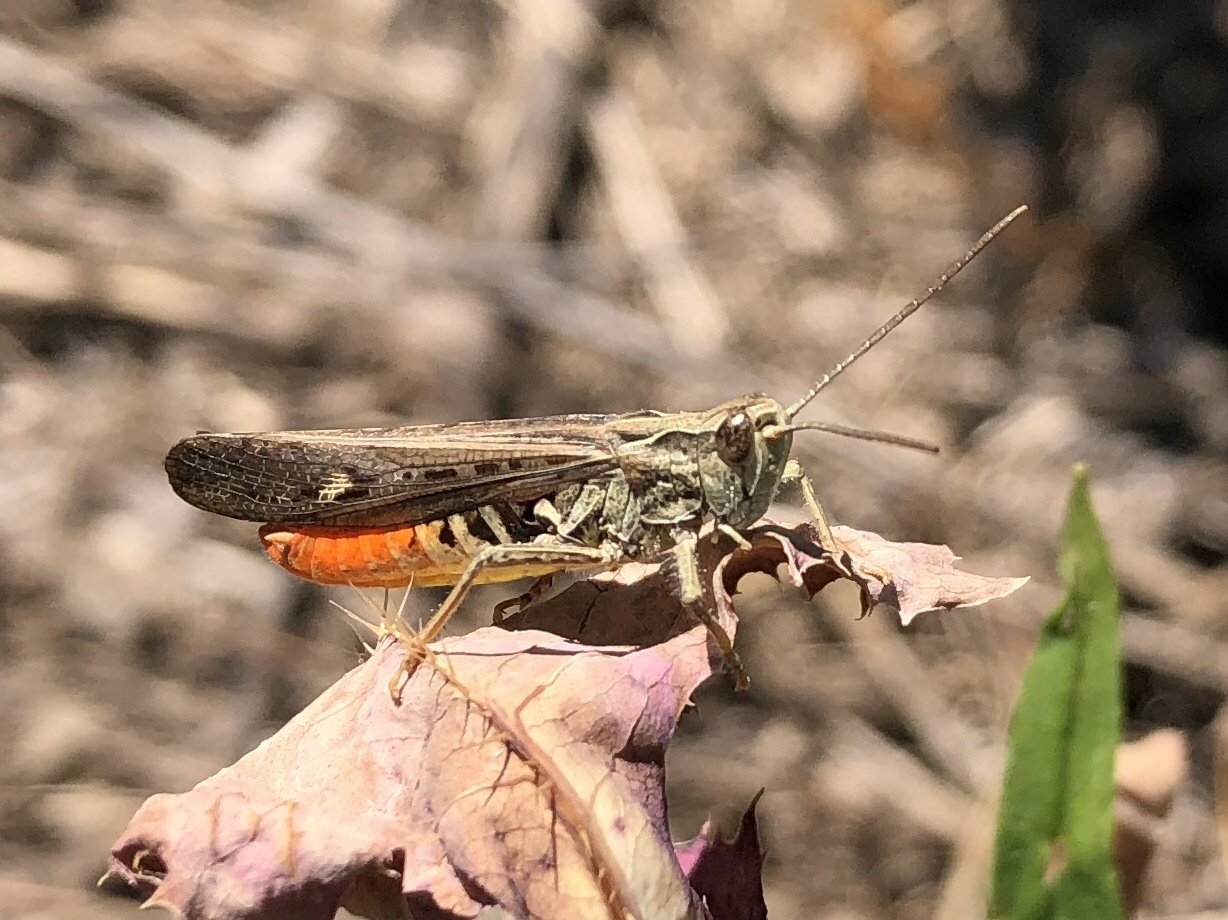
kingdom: Animalia
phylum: Arthropoda
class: Insecta
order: Orthoptera
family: Acrididae
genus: Chorthippus
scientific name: Chorthippus brunneus
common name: Field grasshopper
